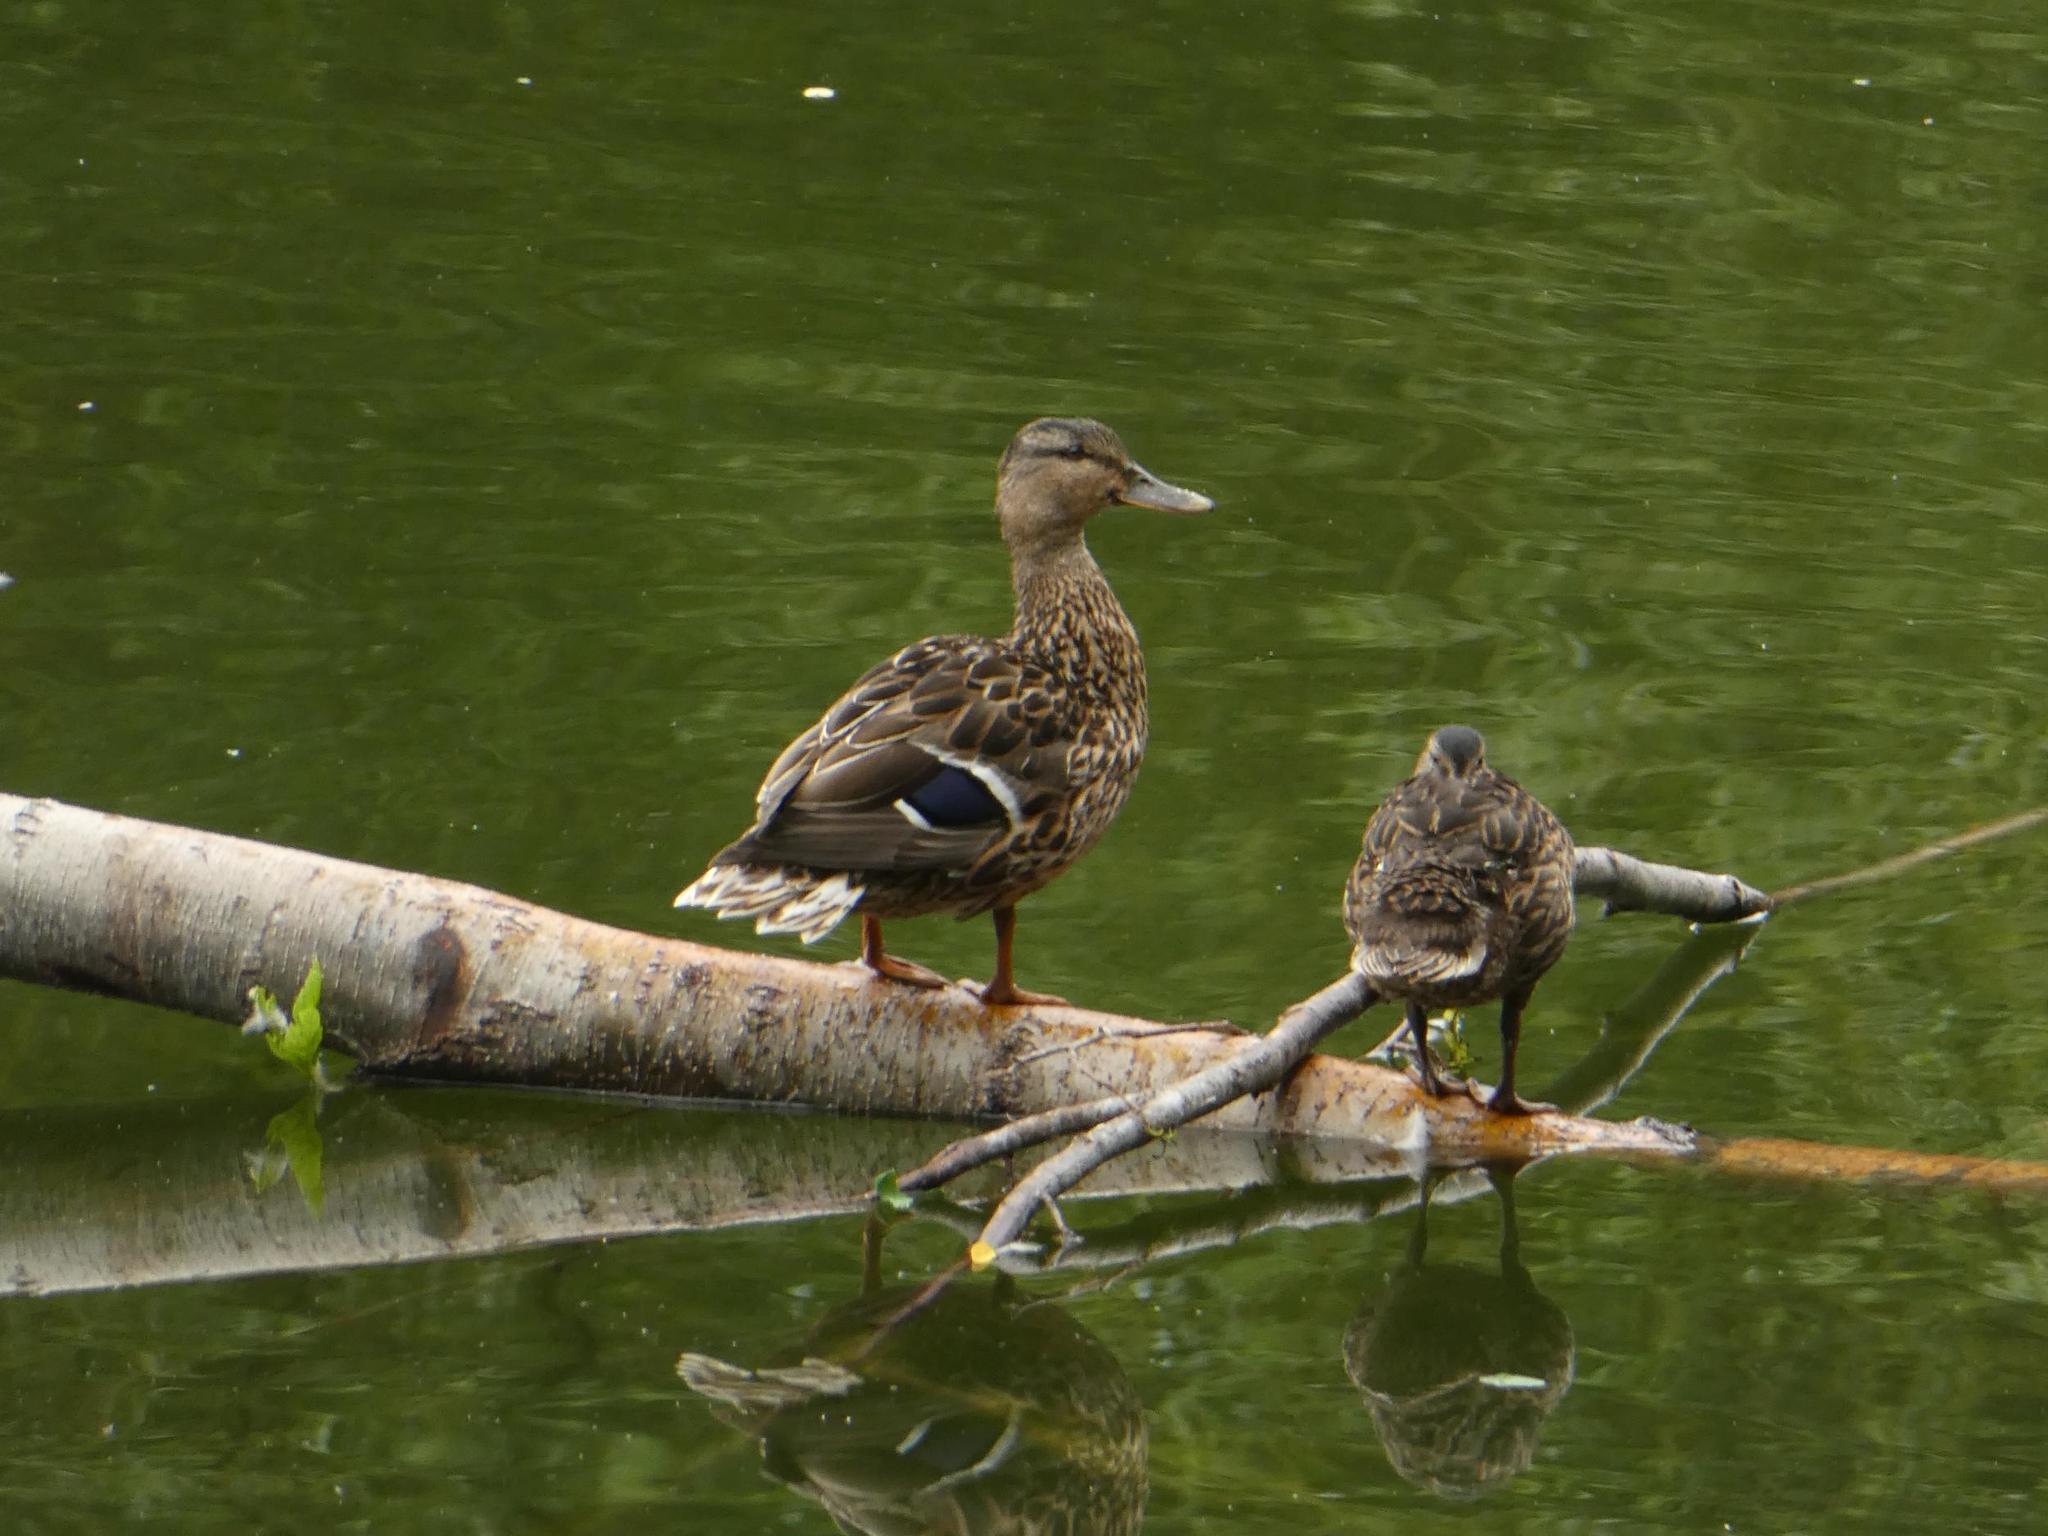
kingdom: Animalia
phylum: Chordata
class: Aves
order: Anseriformes
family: Anatidae
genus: Anas
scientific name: Anas platyrhynchos
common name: Mallard
